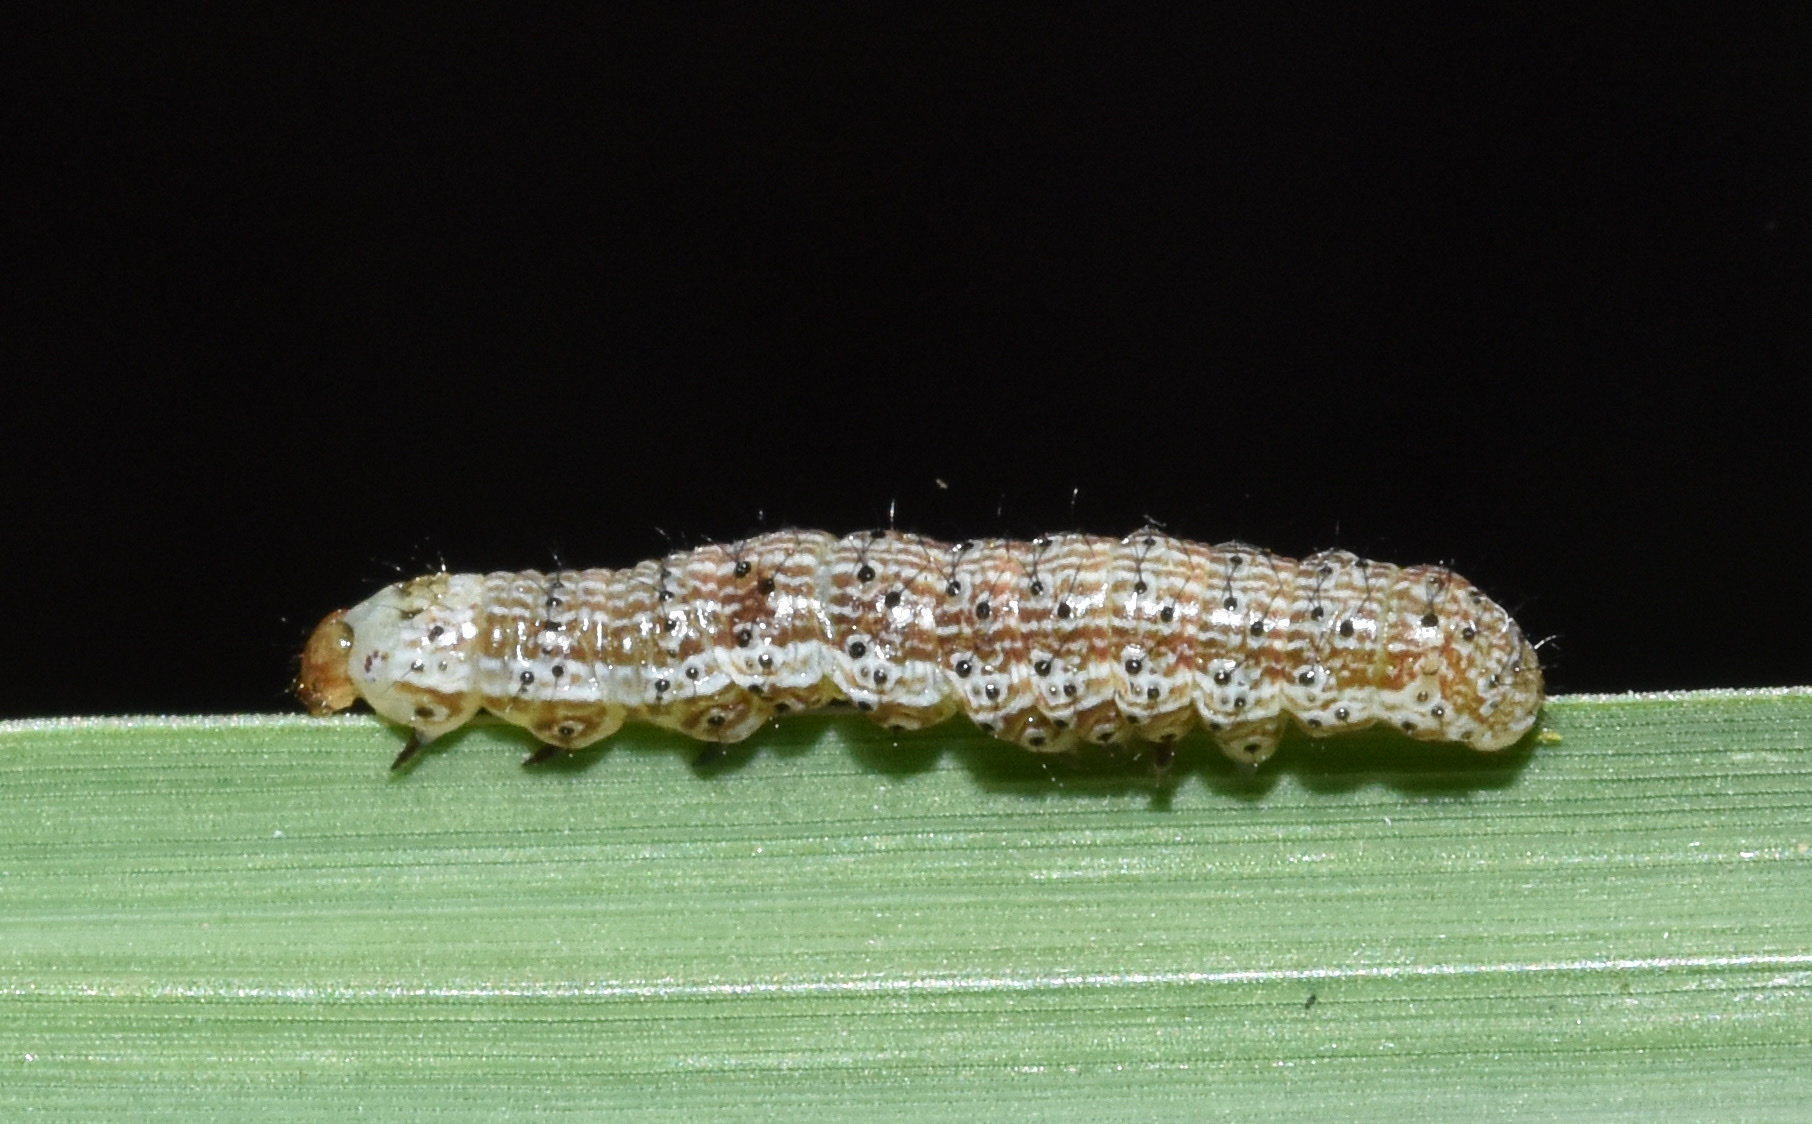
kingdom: Animalia
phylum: Arthropoda
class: Insecta
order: Lepidoptera
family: Noctuidae
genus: Helicoverpa
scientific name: Helicoverpa armigera
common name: Cotton bollworm
